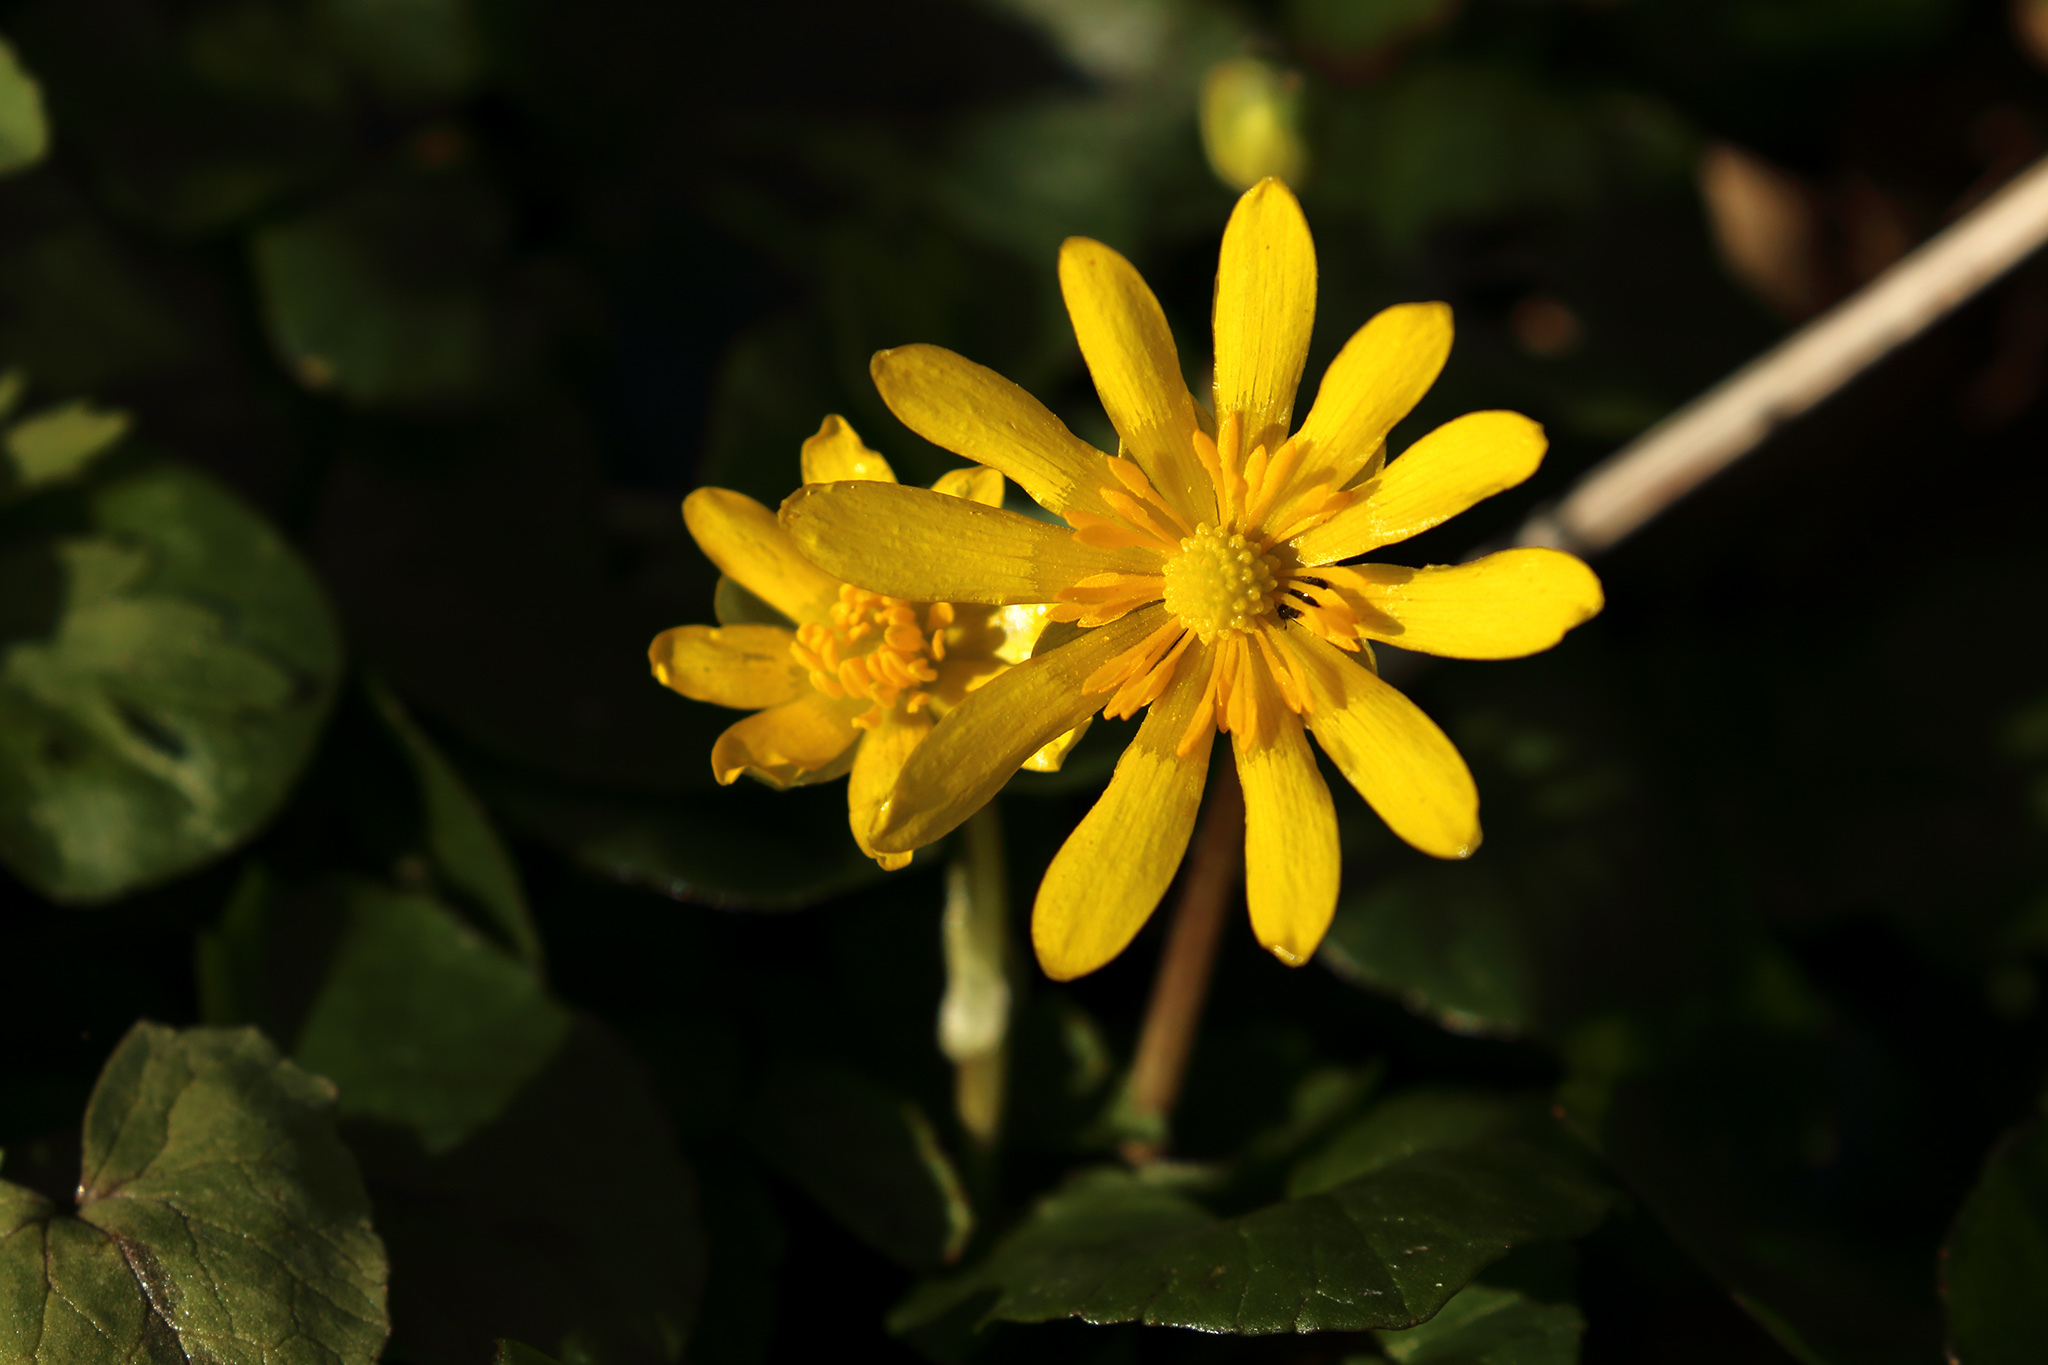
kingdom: Plantae
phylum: Tracheophyta
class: Magnoliopsida
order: Ranunculales
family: Ranunculaceae
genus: Ficaria
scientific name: Ficaria verna
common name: Lesser celandine
